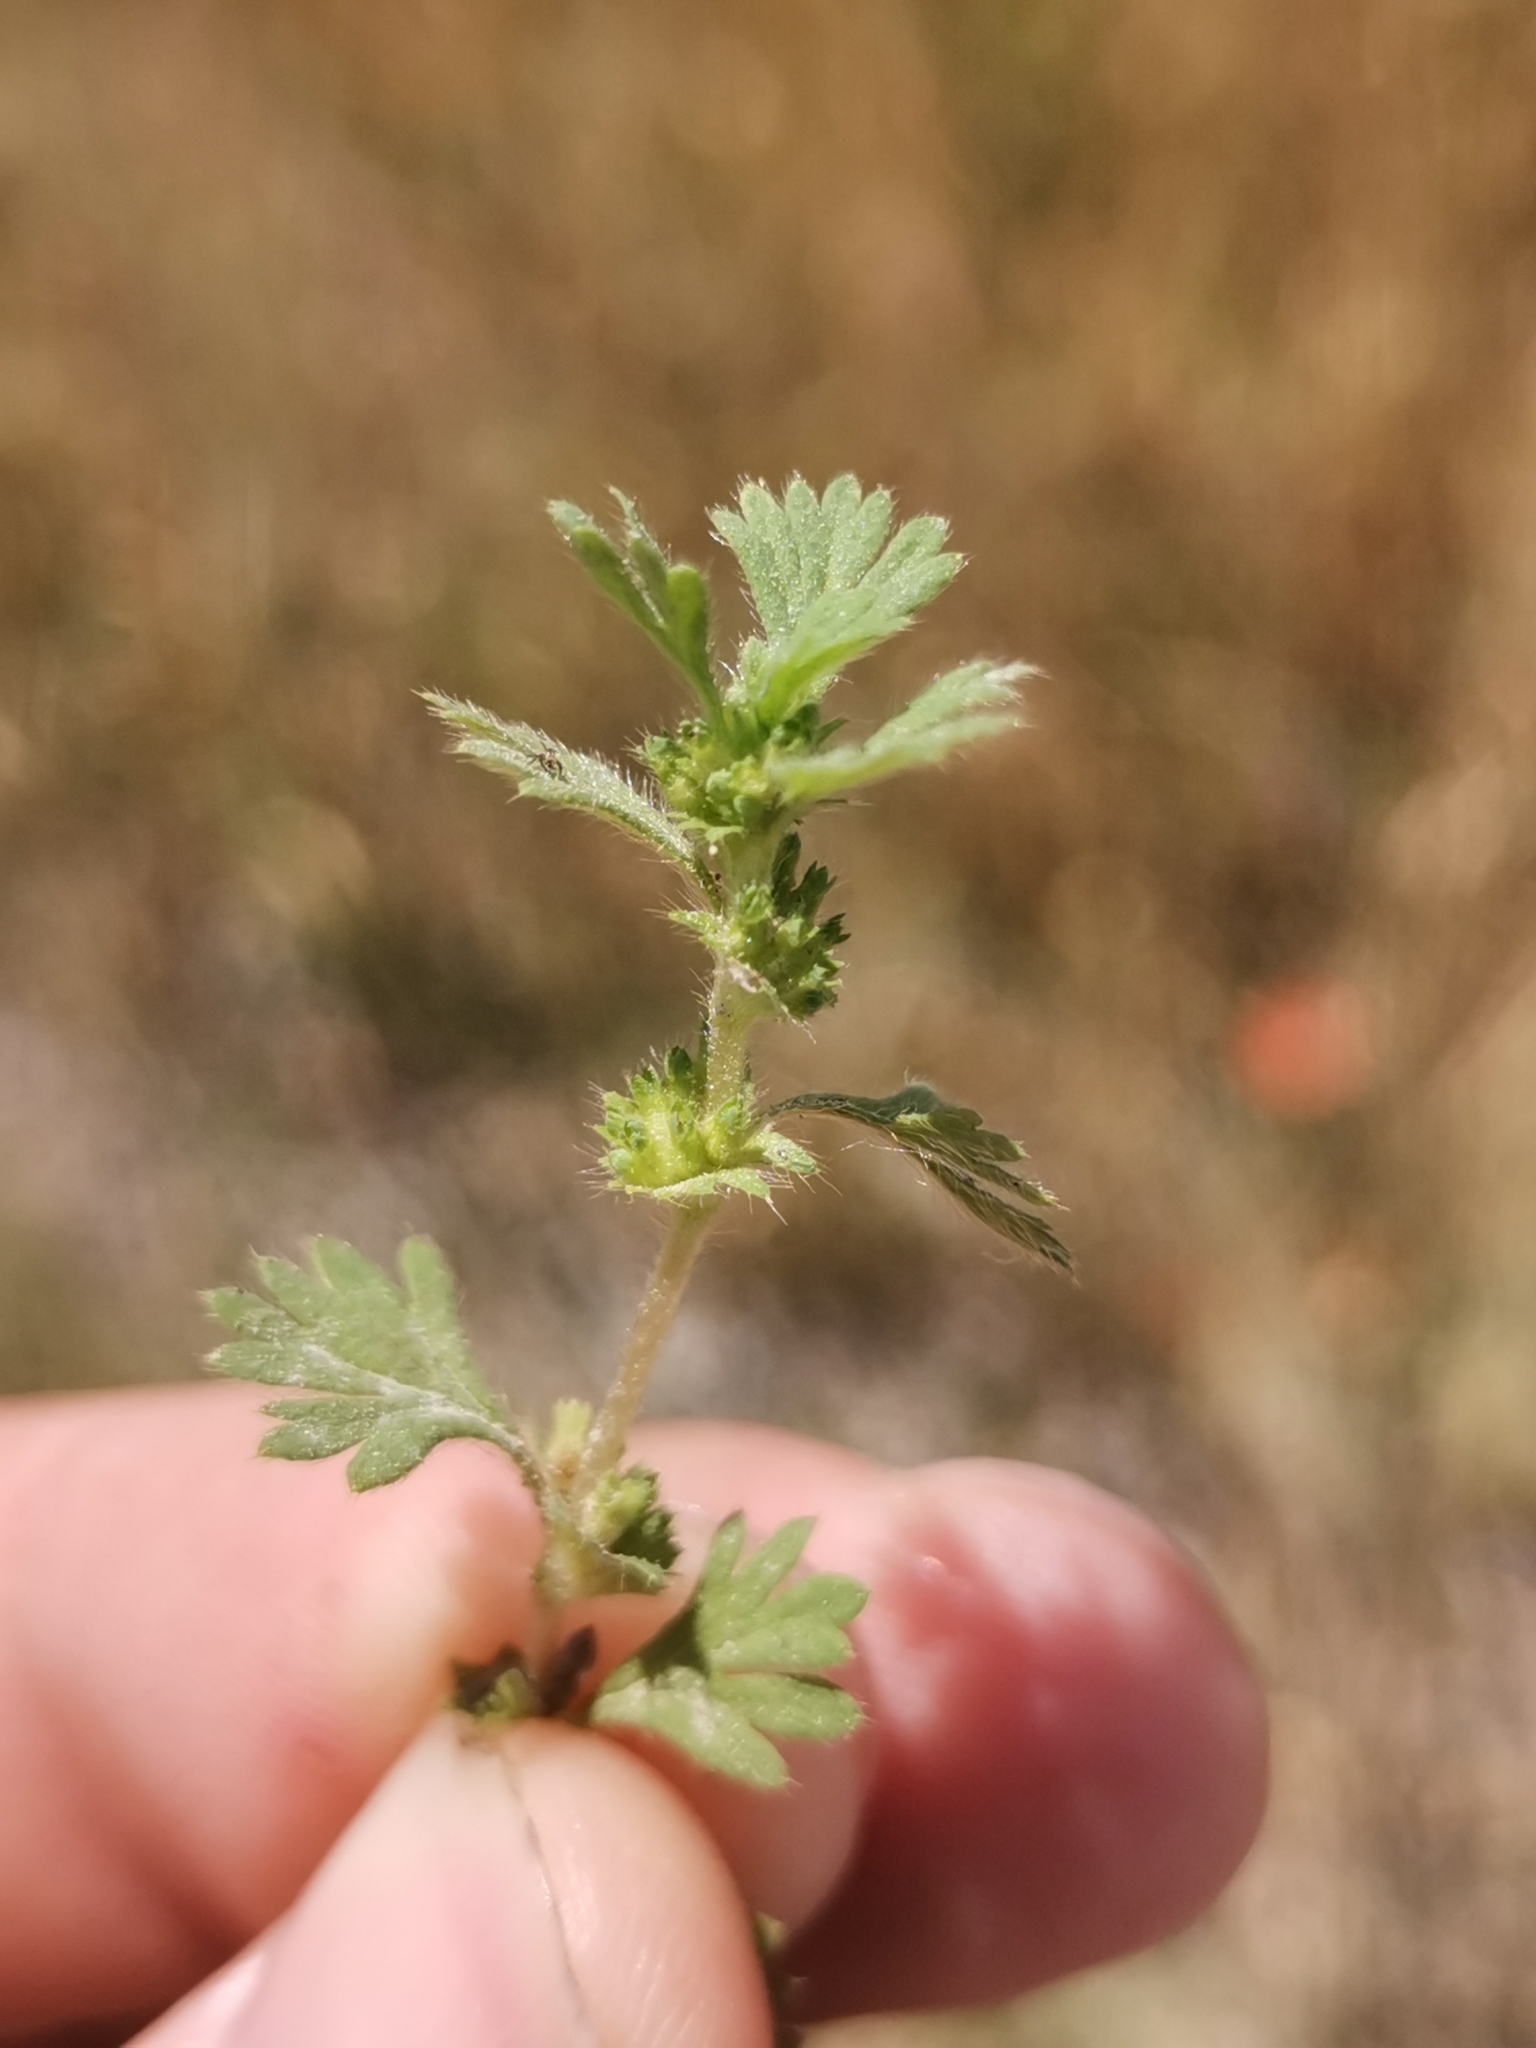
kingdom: Plantae
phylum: Tracheophyta
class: Magnoliopsida
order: Rosales
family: Rosaceae
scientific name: Rosaceae
